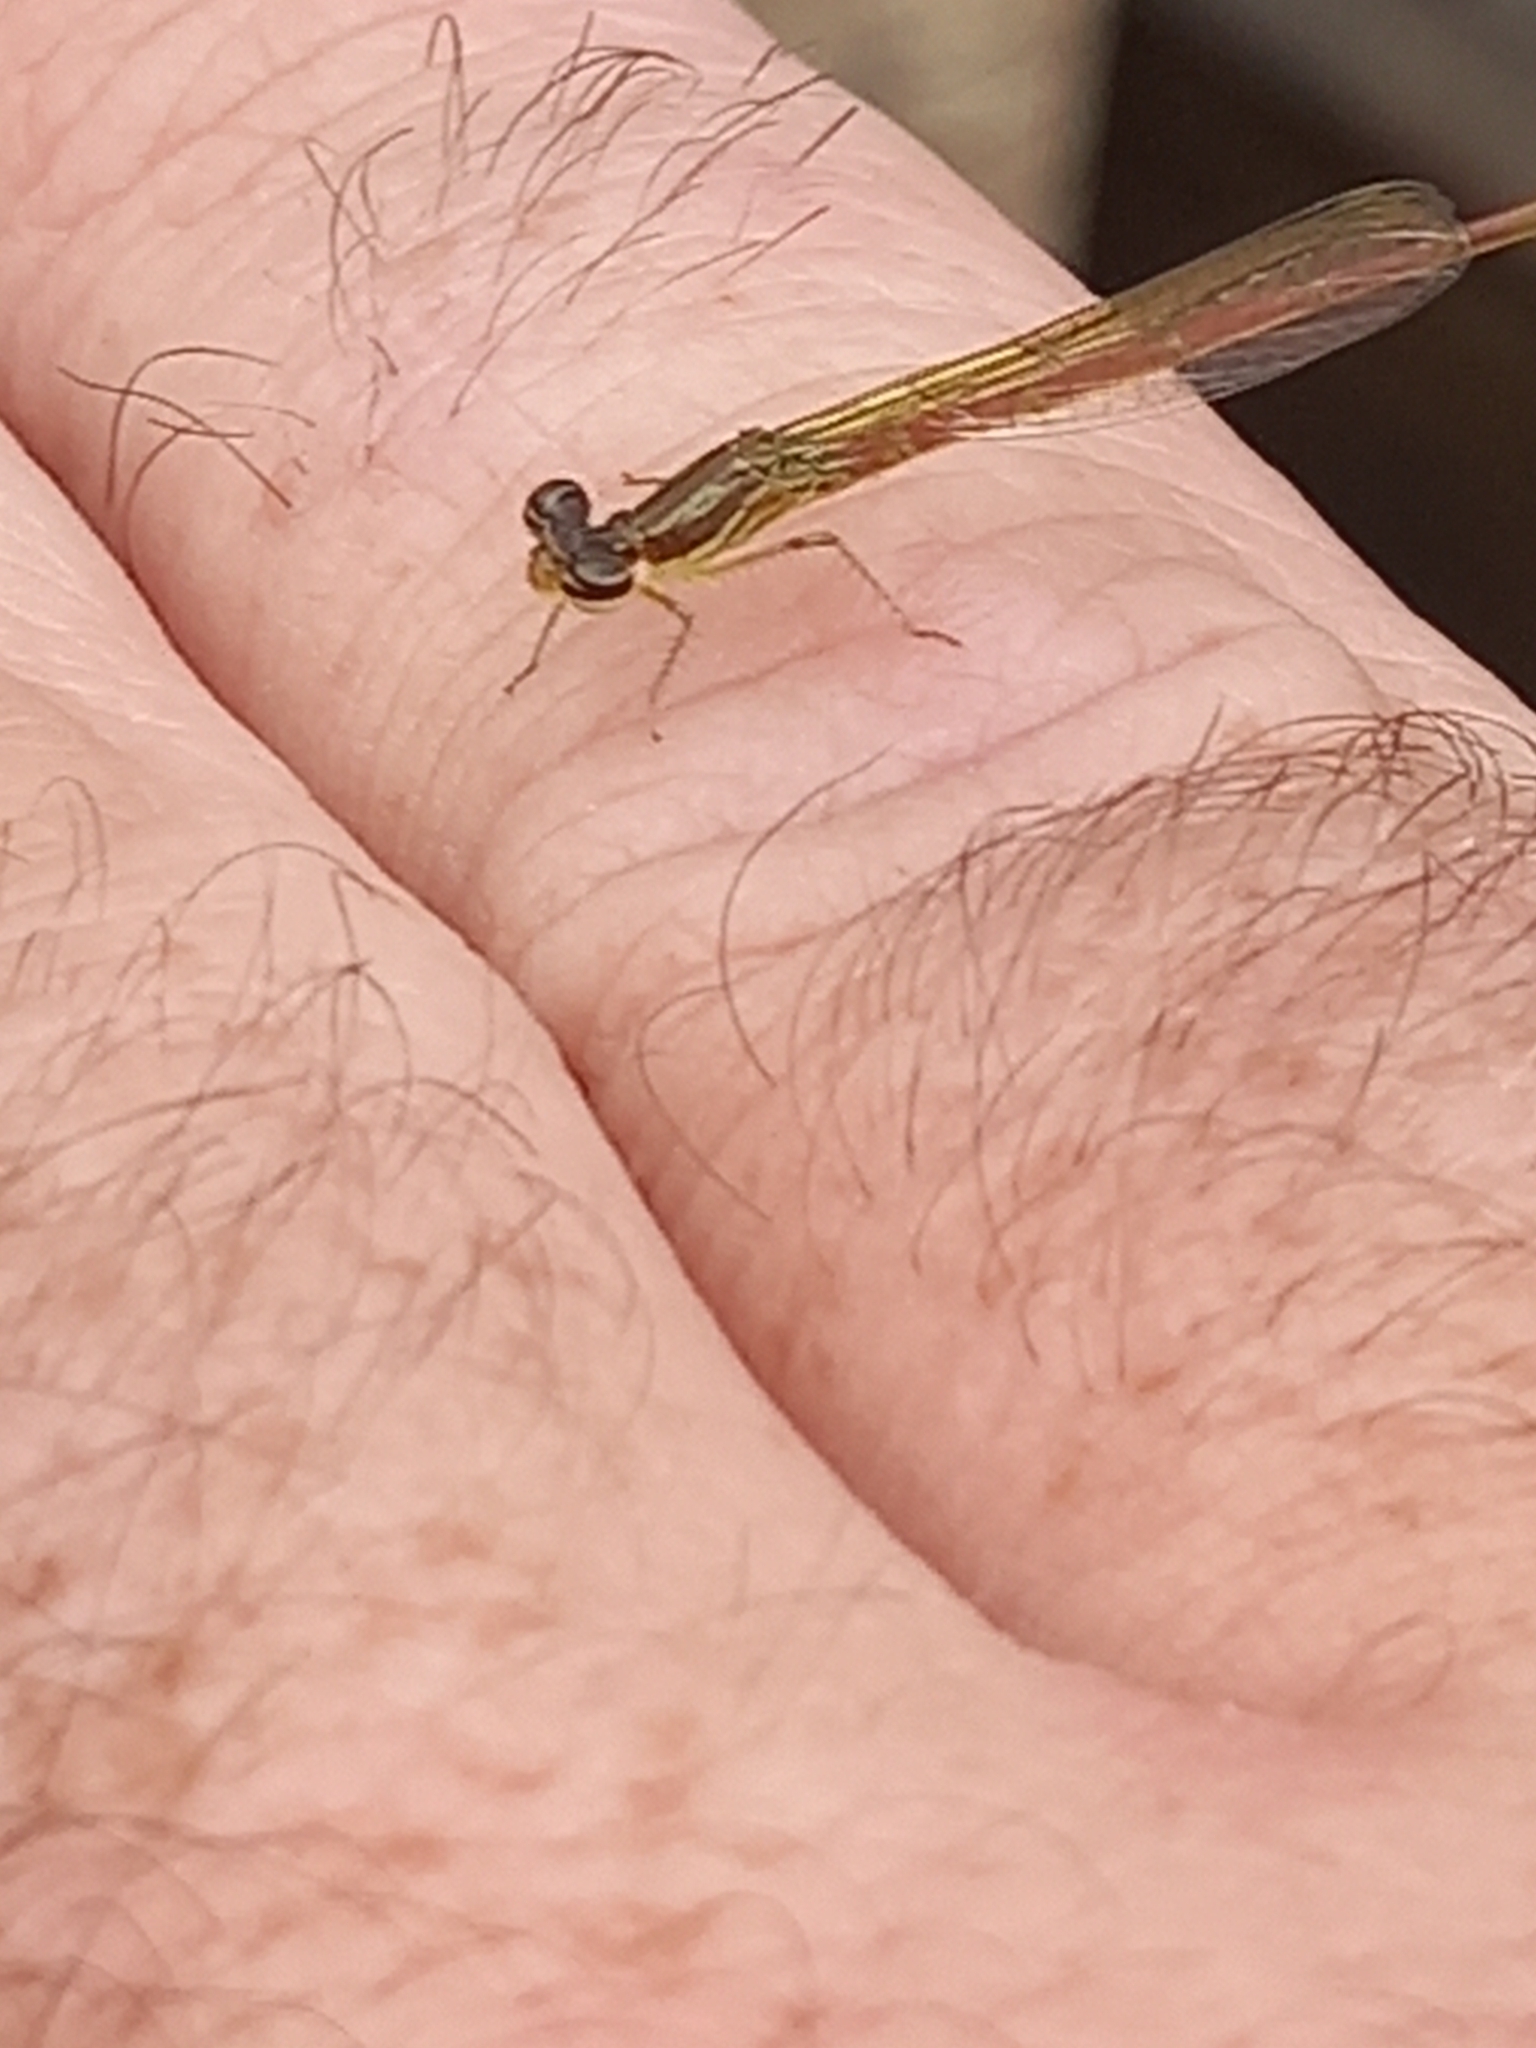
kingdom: Animalia
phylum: Arthropoda
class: Insecta
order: Odonata
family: Coenagrionidae
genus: Telebasis
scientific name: Telebasis willinki
